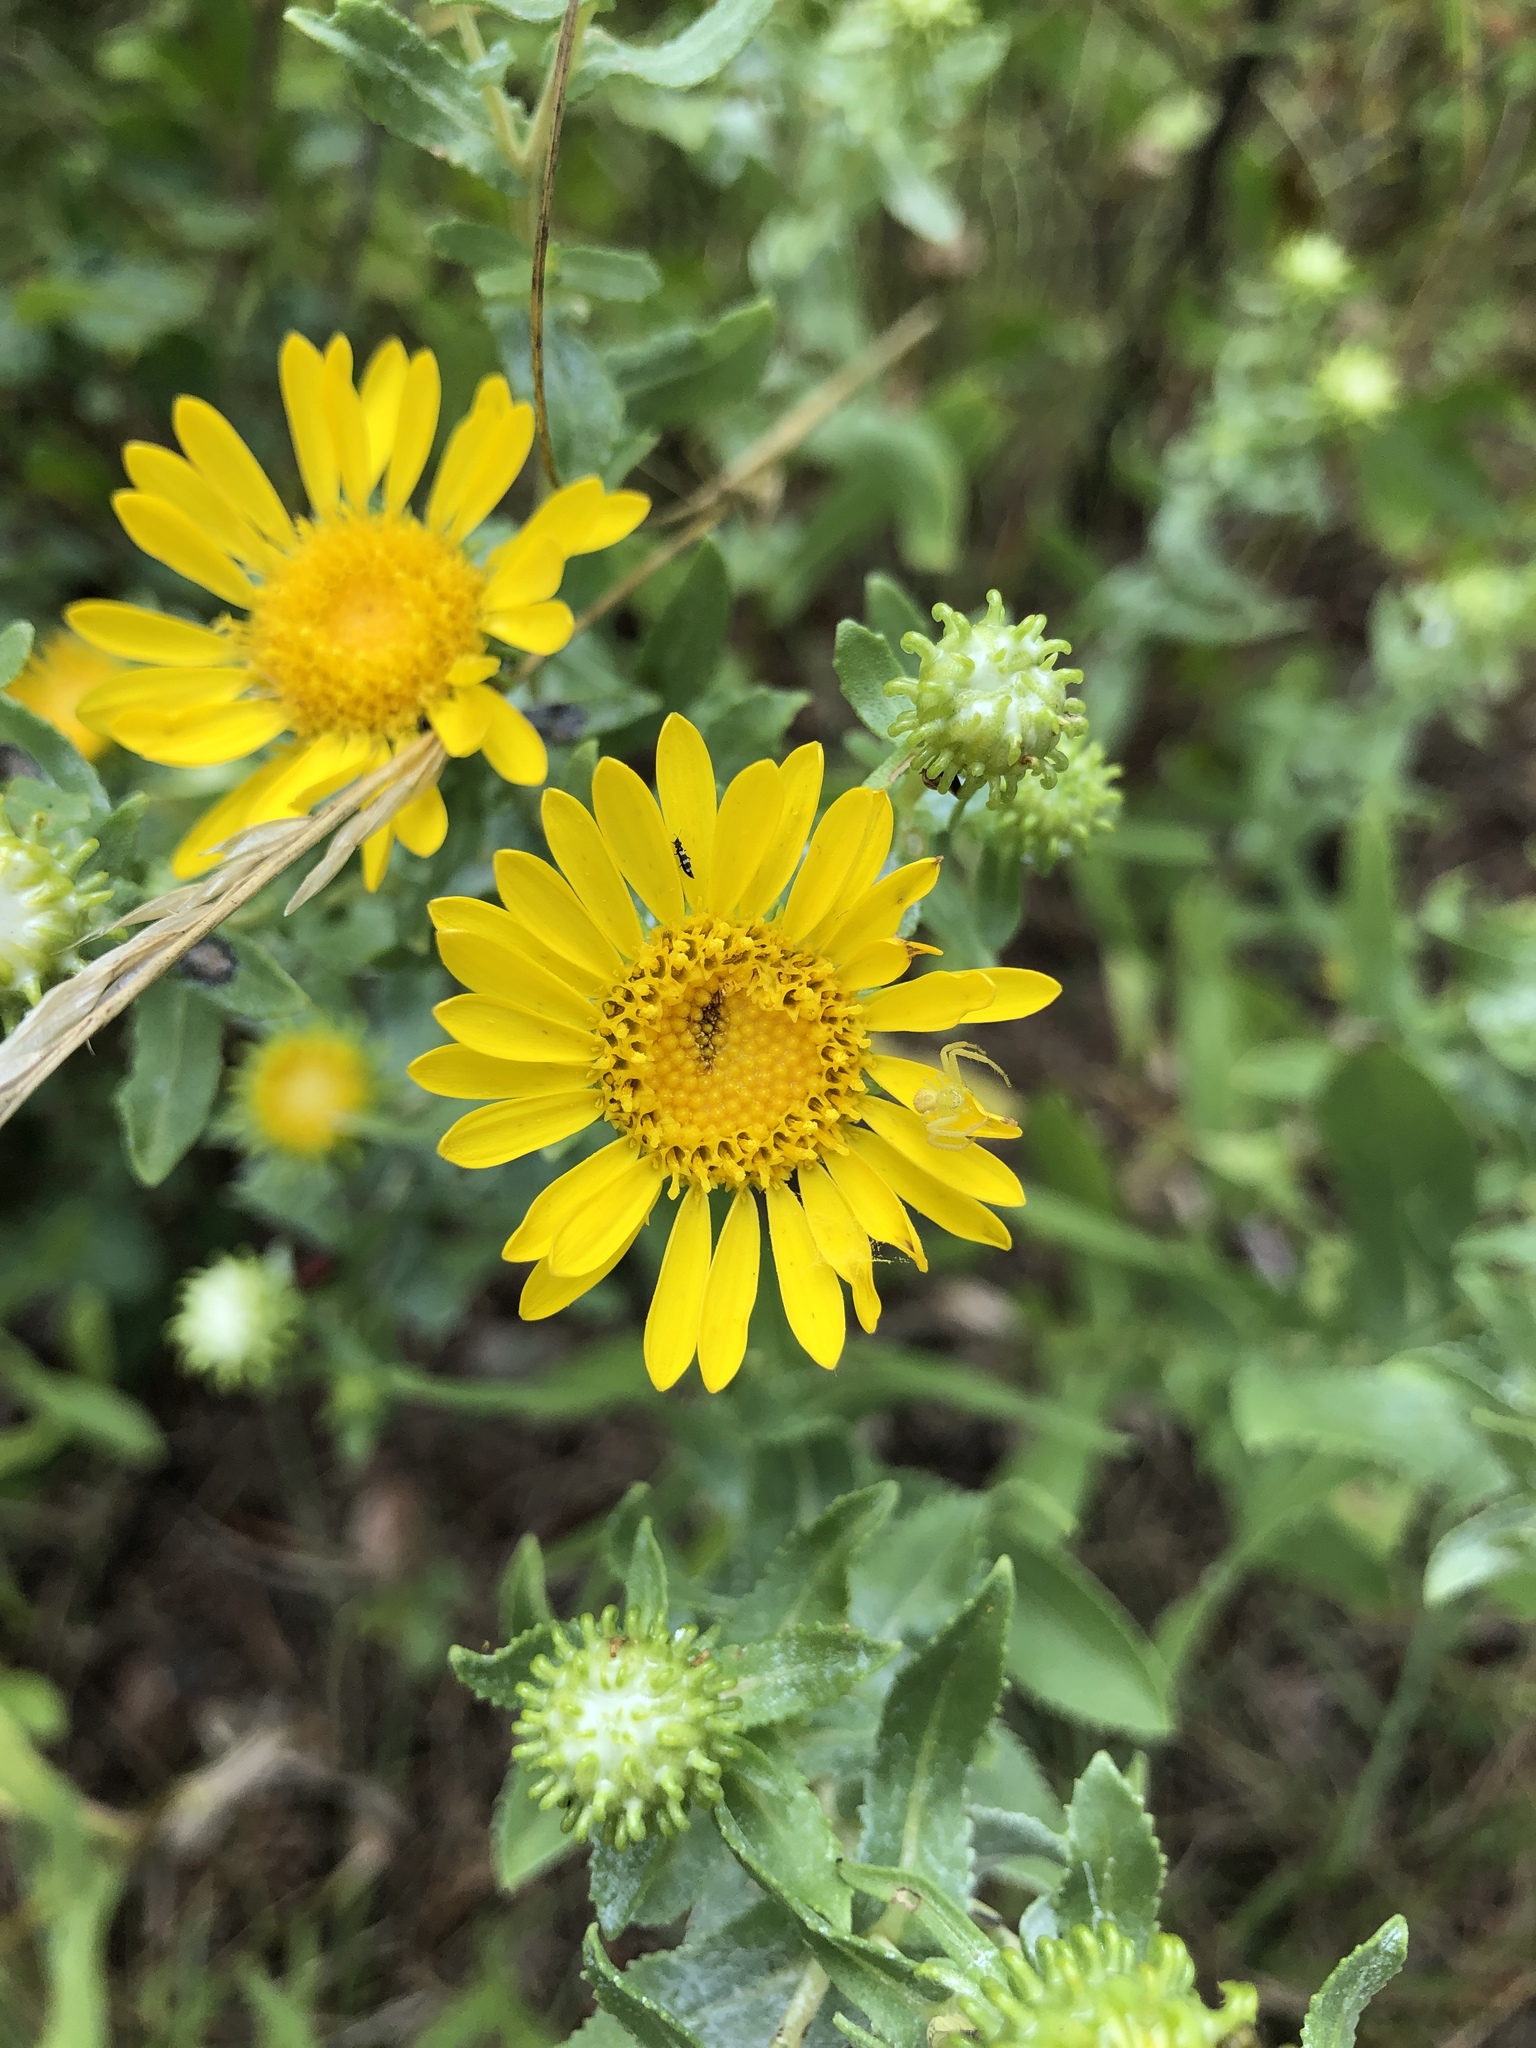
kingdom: Plantae
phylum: Tracheophyta
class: Magnoliopsida
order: Asterales
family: Asteraceae
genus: Grindelia
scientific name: Grindelia squarrosa
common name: Curly-cup gumweed
